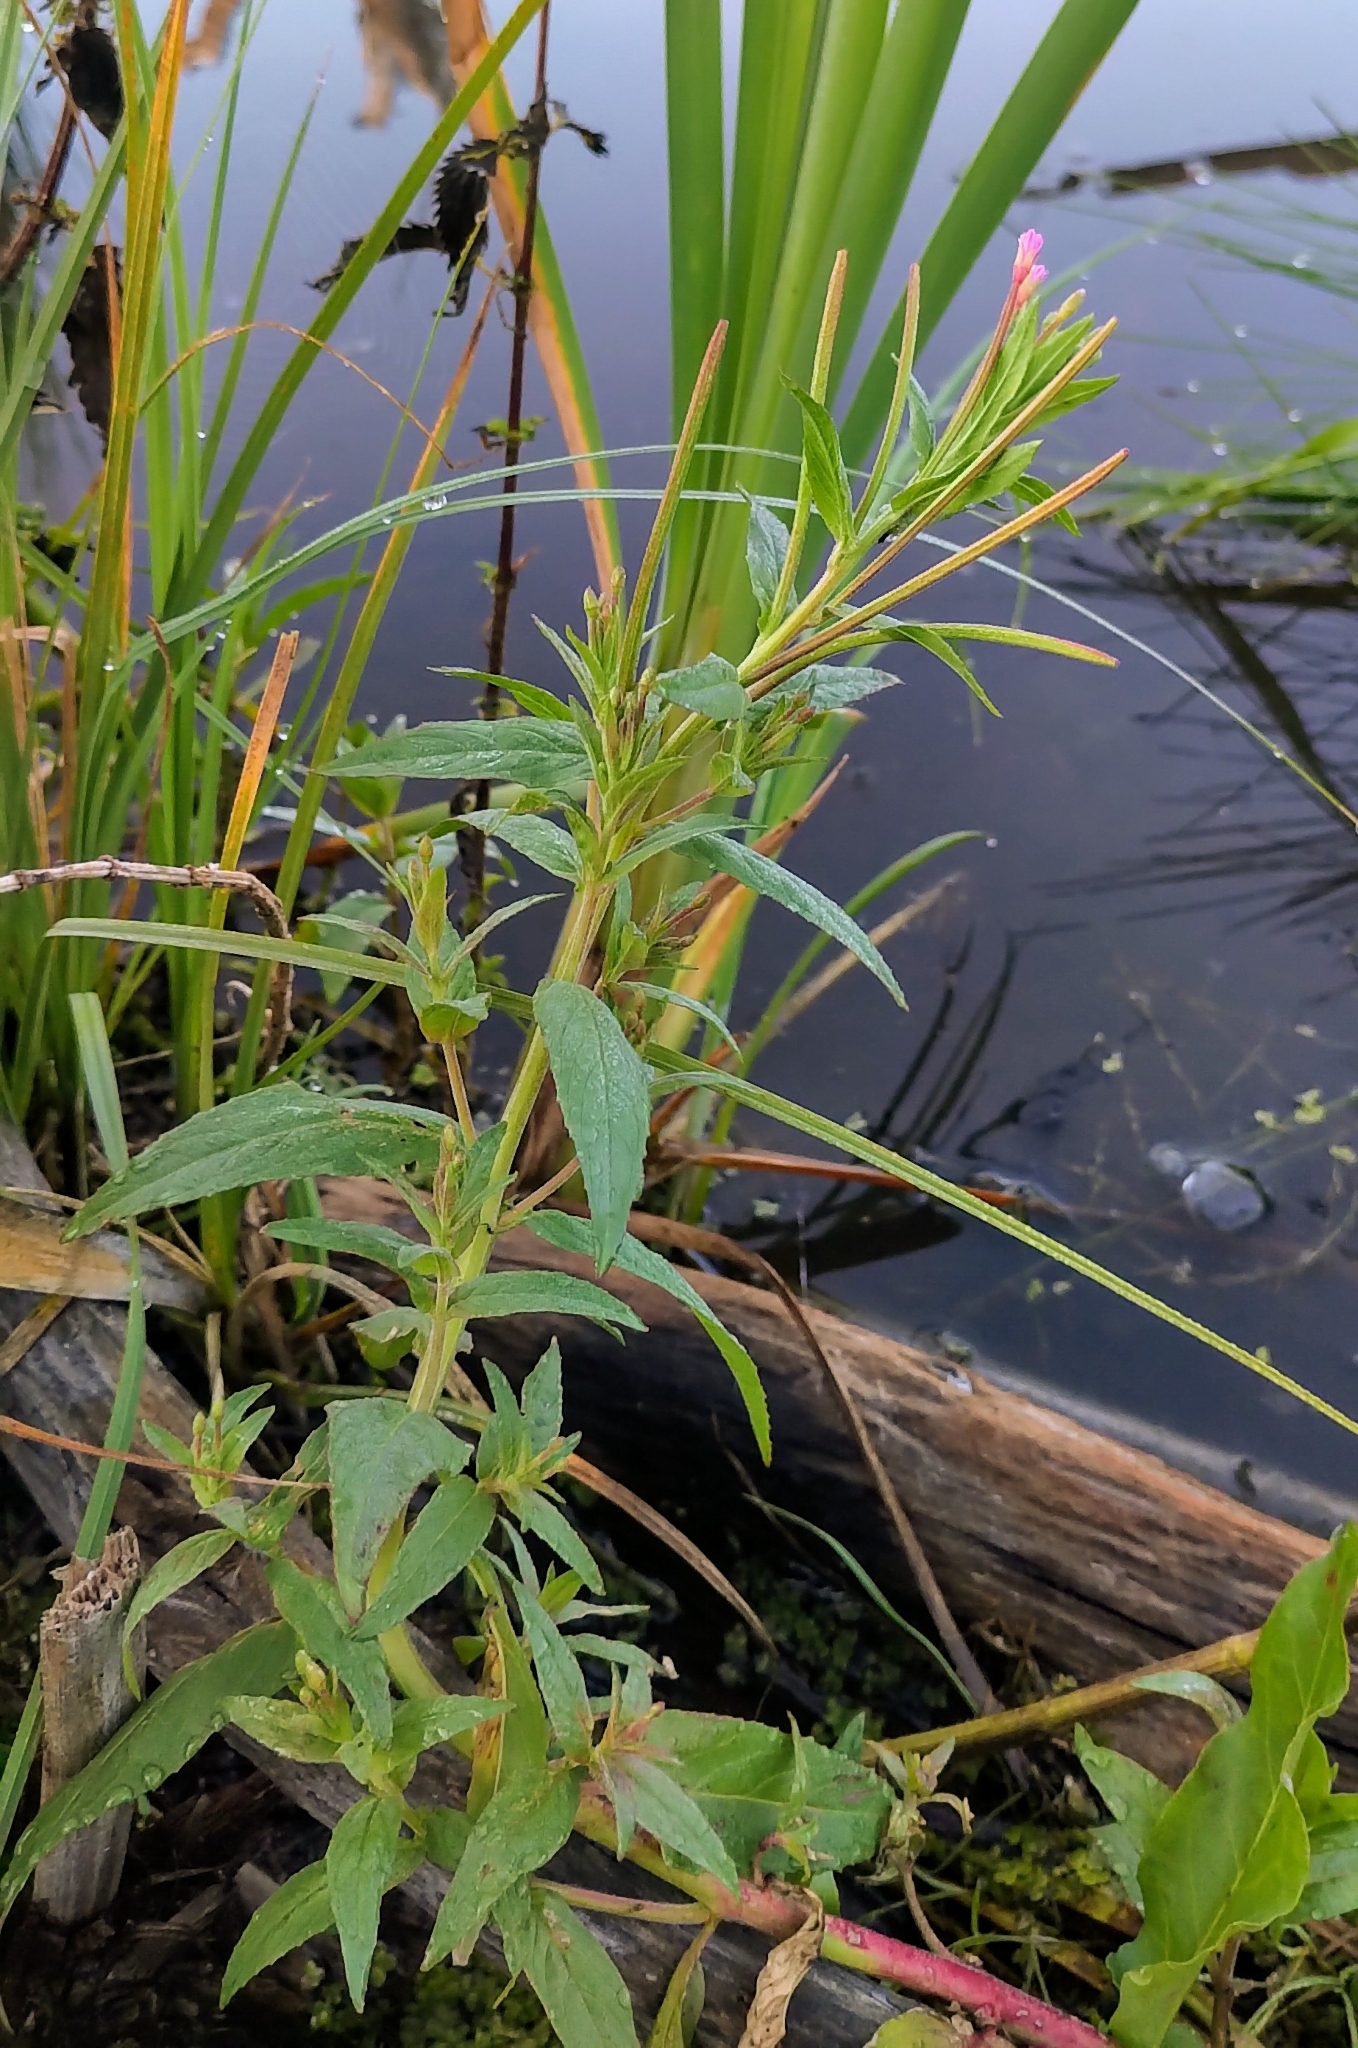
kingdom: Plantae
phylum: Tracheophyta
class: Magnoliopsida
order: Myrtales
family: Onagraceae
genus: Epilobium
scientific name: Epilobium ciliatum
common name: American willowherb
